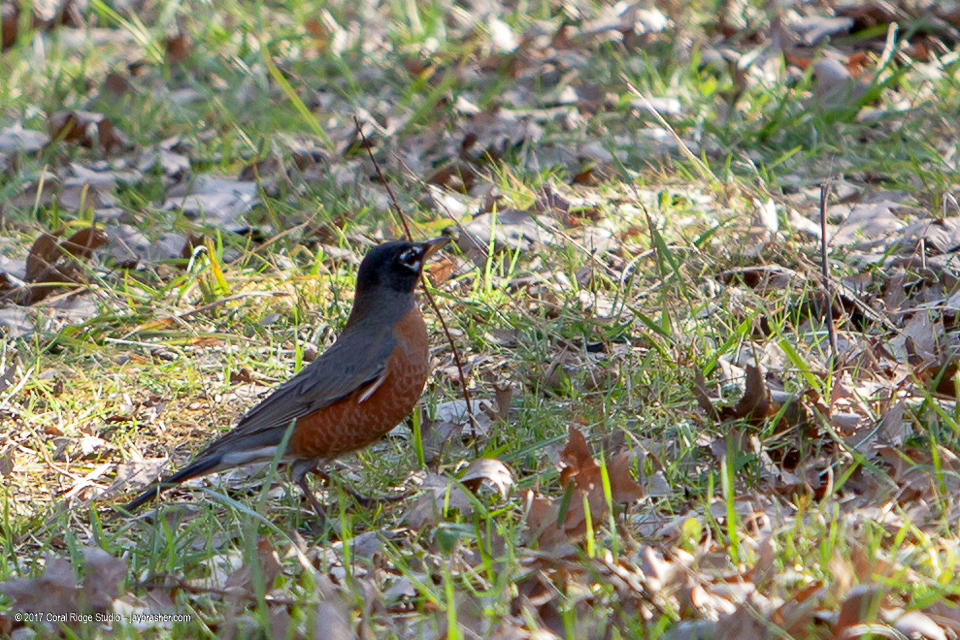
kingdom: Animalia
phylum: Chordata
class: Aves
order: Passeriformes
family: Turdidae
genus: Turdus
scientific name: Turdus migratorius
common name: American robin
